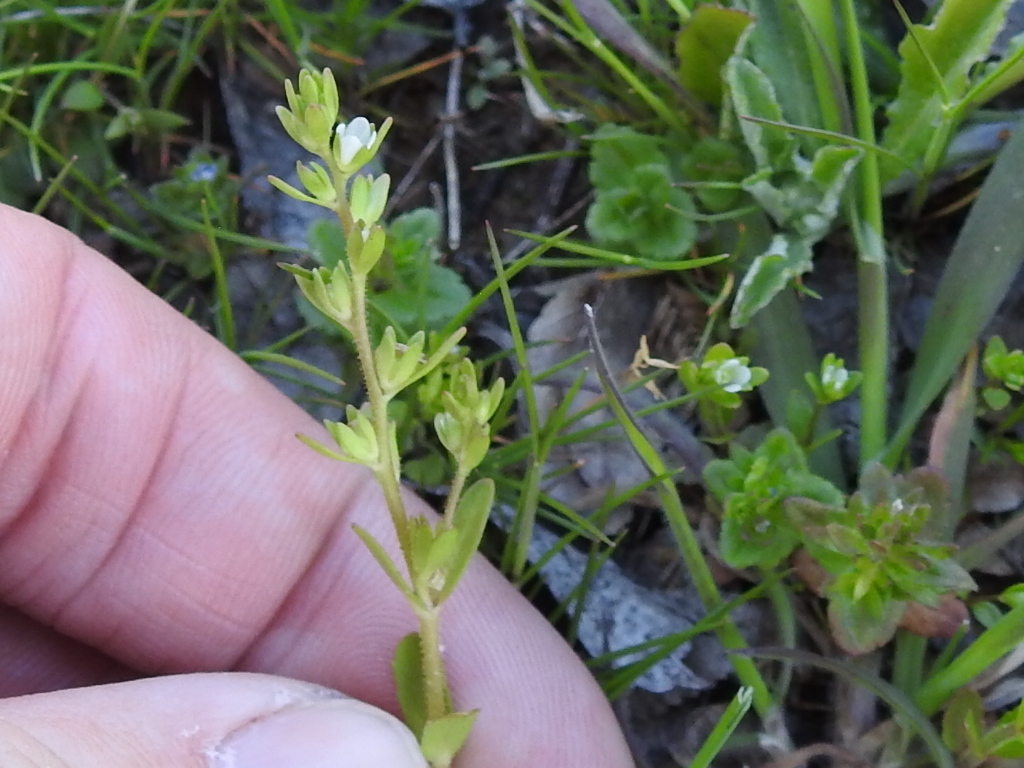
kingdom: Plantae
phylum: Tracheophyta
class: Magnoliopsida
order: Lamiales
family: Plantaginaceae
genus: Veronica
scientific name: Veronica peregrina
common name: Neckweed
